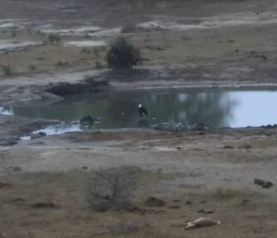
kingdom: Animalia
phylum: Chordata
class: Aves
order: Ciconiiformes
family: Ciconiidae
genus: Ciconia
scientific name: Ciconia microscelis
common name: African woollyneck
